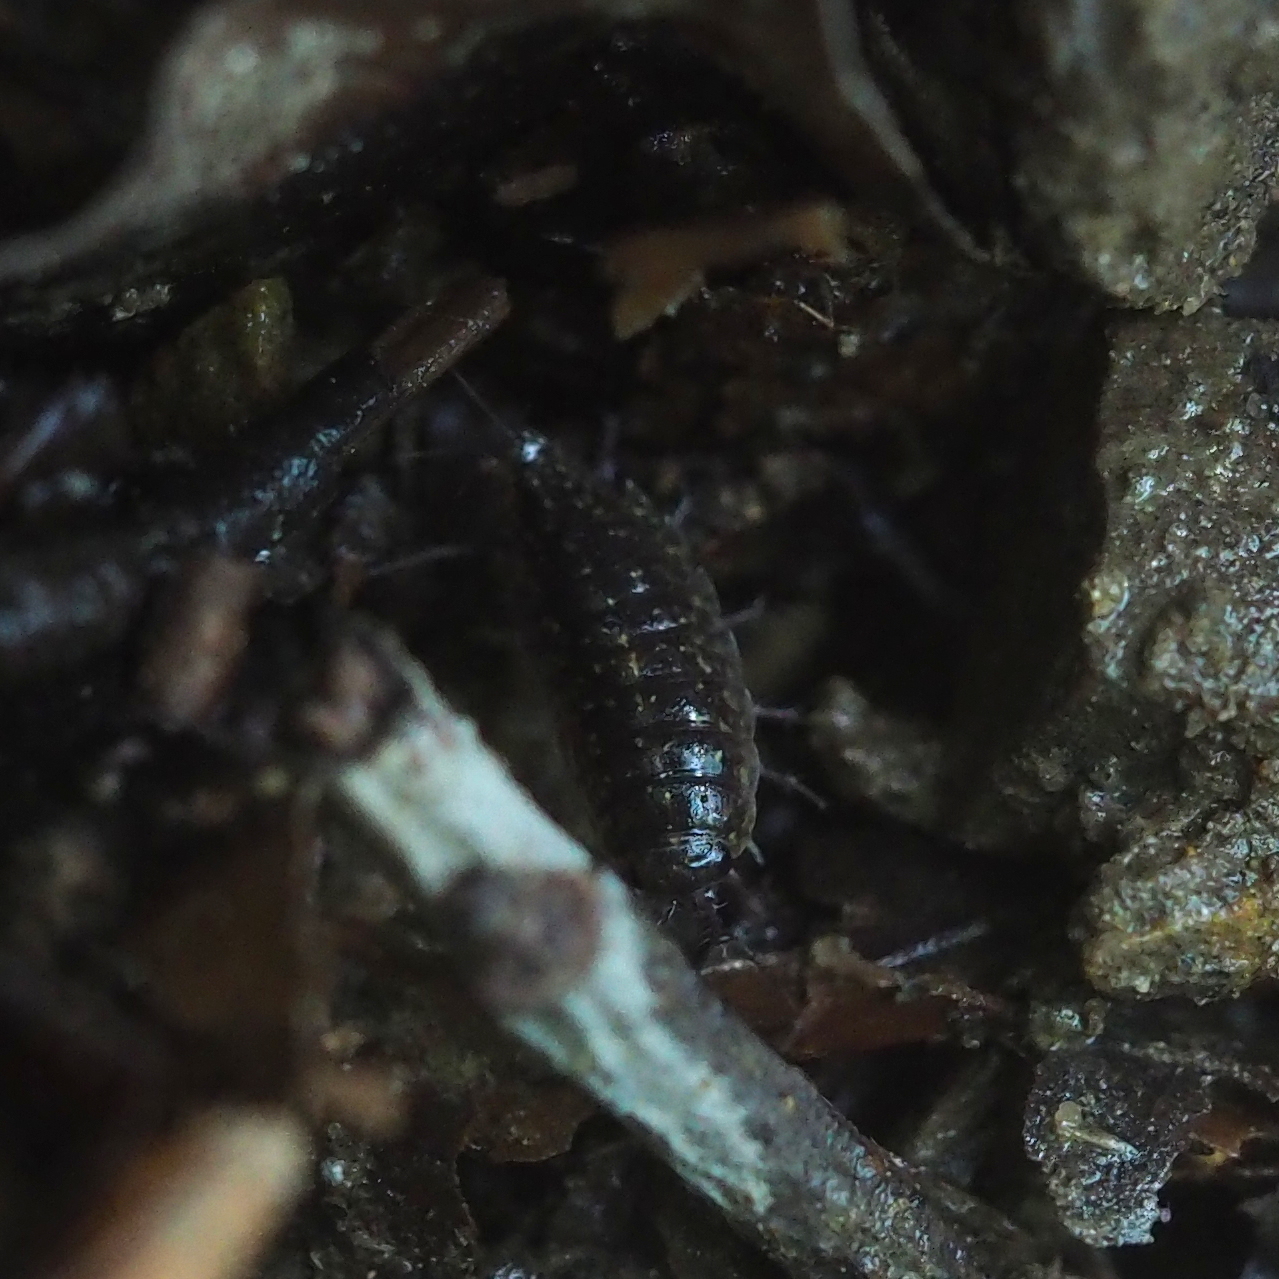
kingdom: Animalia
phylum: Arthropoda
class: Malacostraca
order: Isopoda
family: Ligiidae
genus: Ligidium
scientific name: Ligidium germanicum
